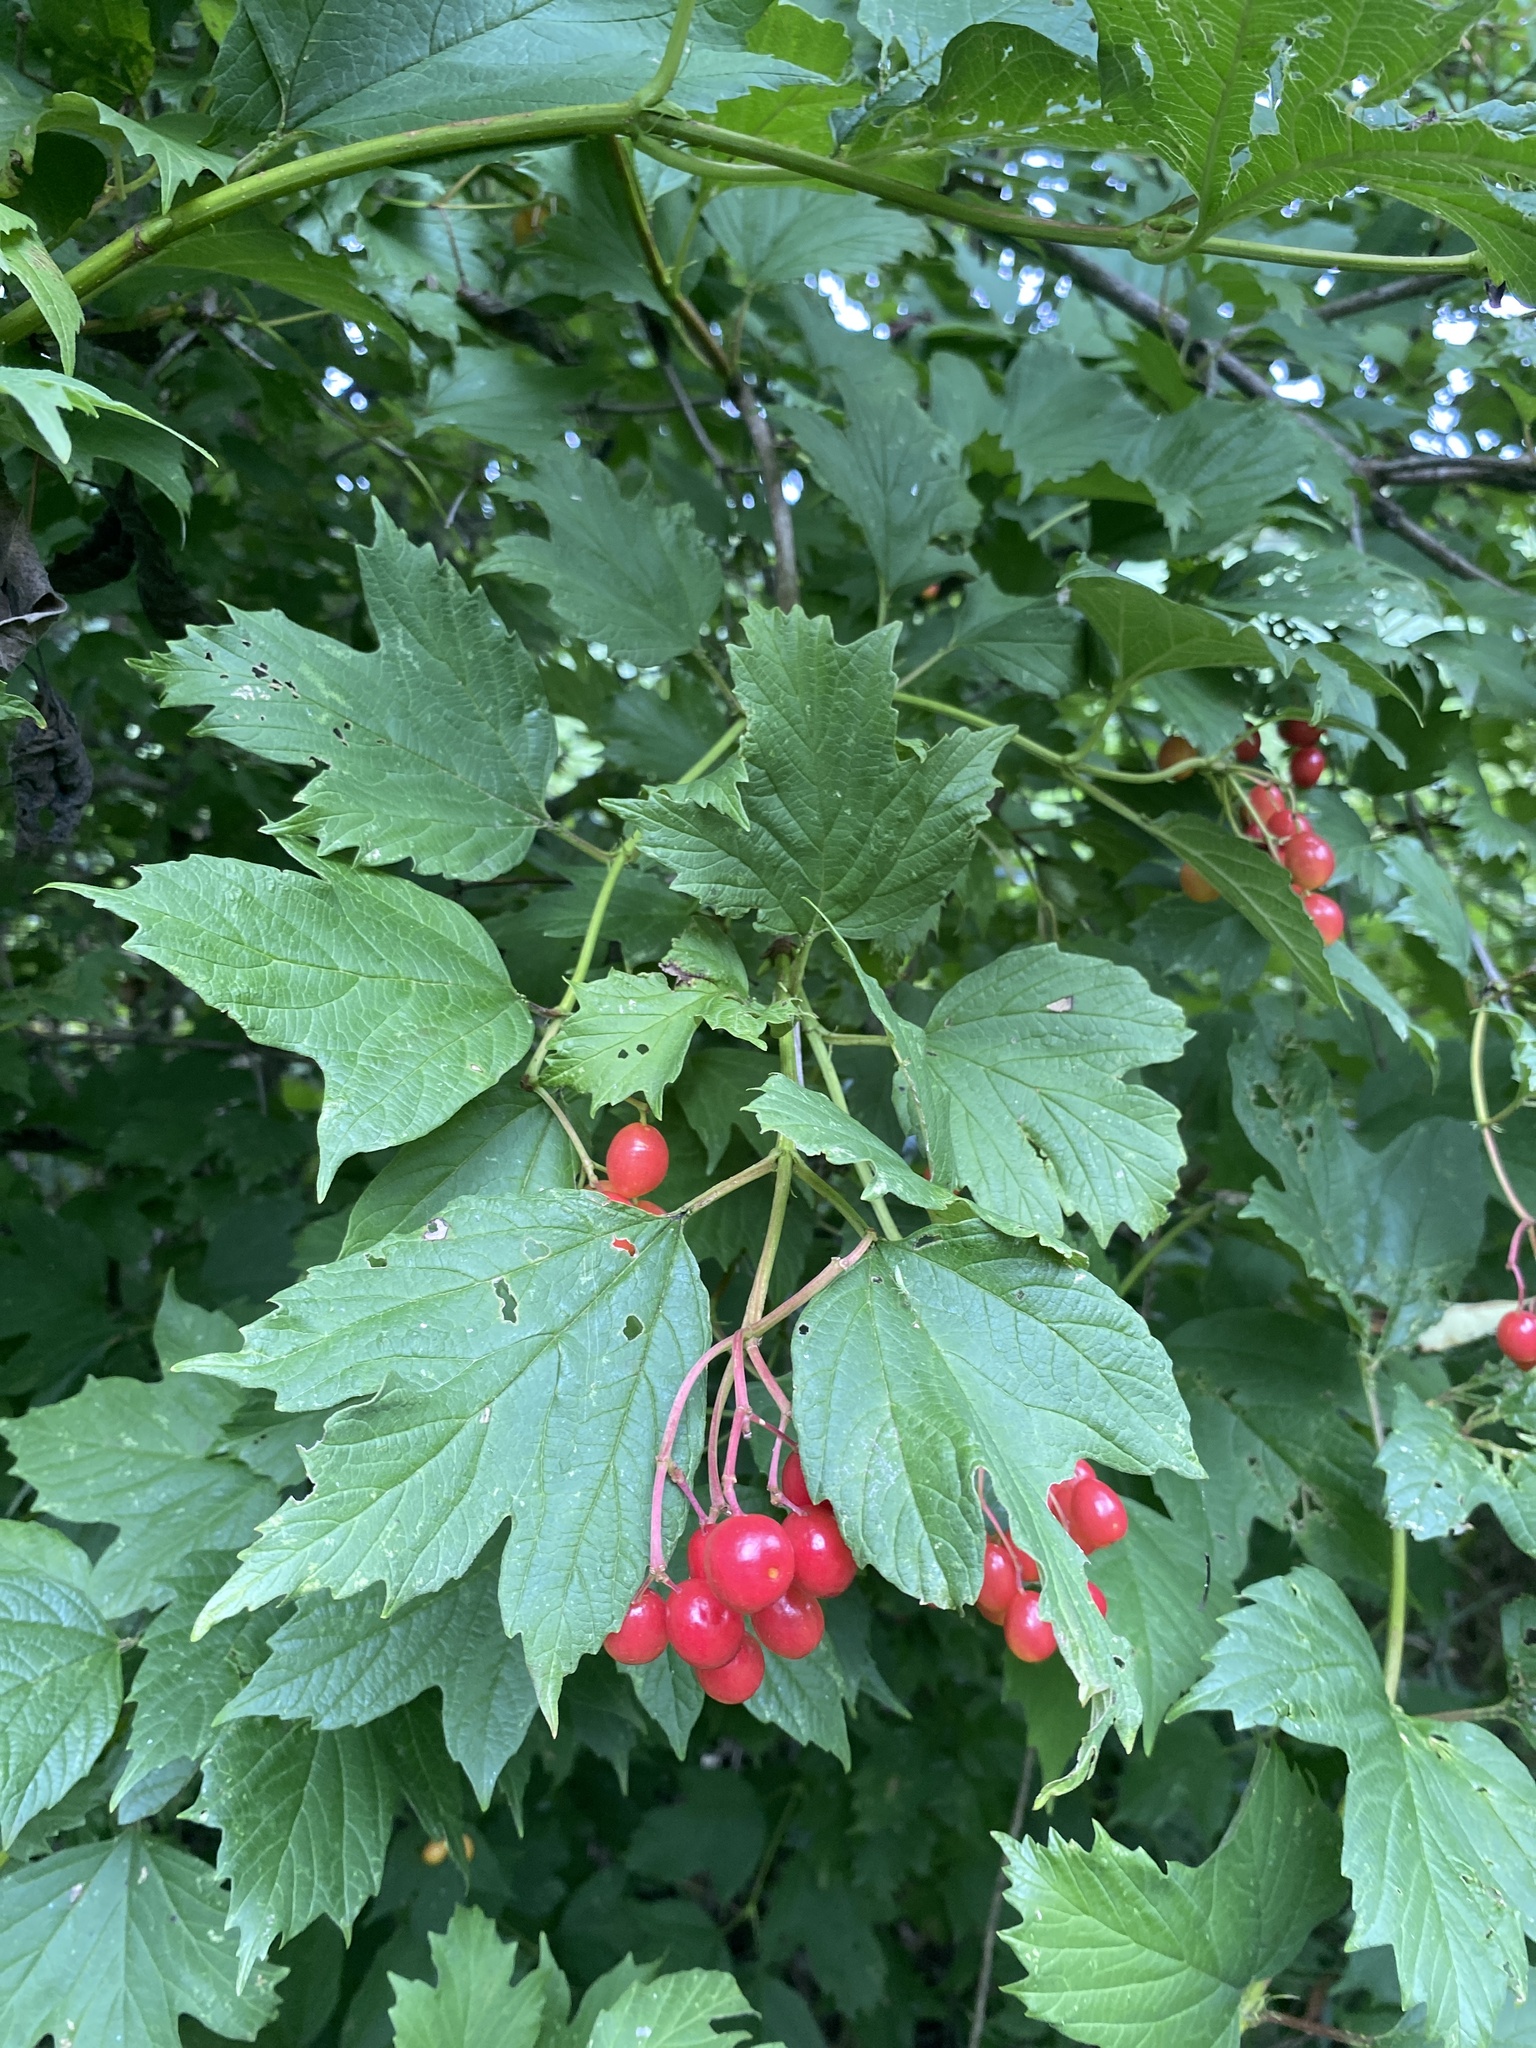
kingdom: Plantae
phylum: Tracheophyta
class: Magnoliopsida
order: Dipsacales
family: Viburnaceae
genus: Viburnum
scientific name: Viburnum opulus
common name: Guelder-rose
